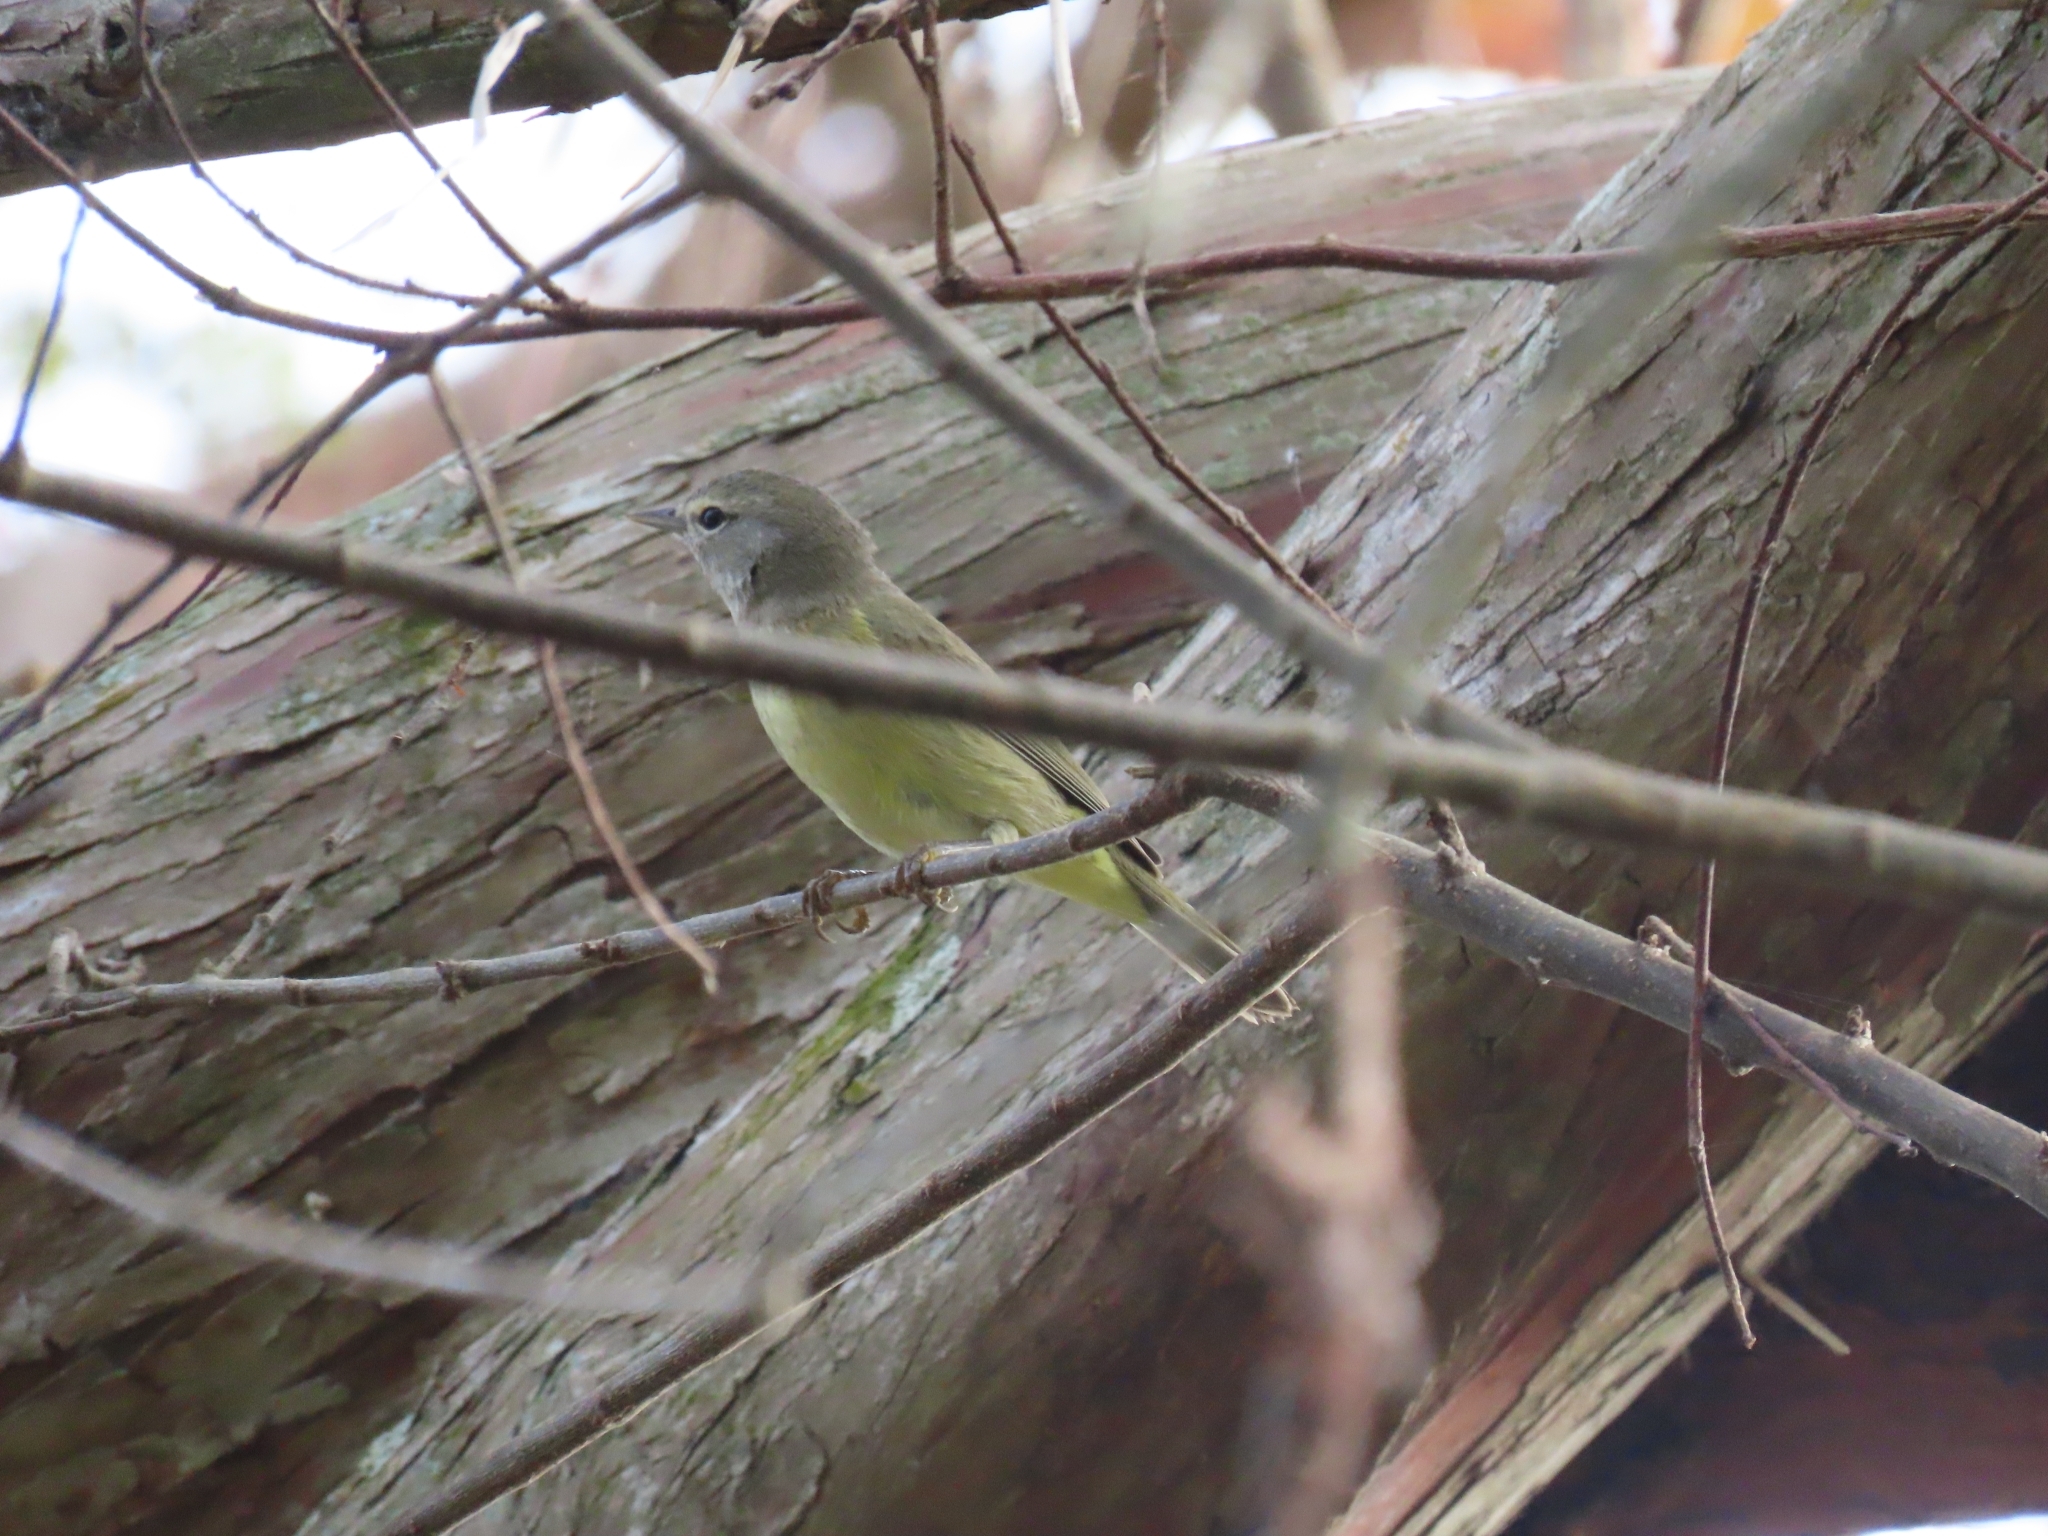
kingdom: Animalia
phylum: Chordata
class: Aves
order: Passeriformes
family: Parulidae
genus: Leiothlypis
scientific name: Leiothlypis celata
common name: Orange-crowned warbler
